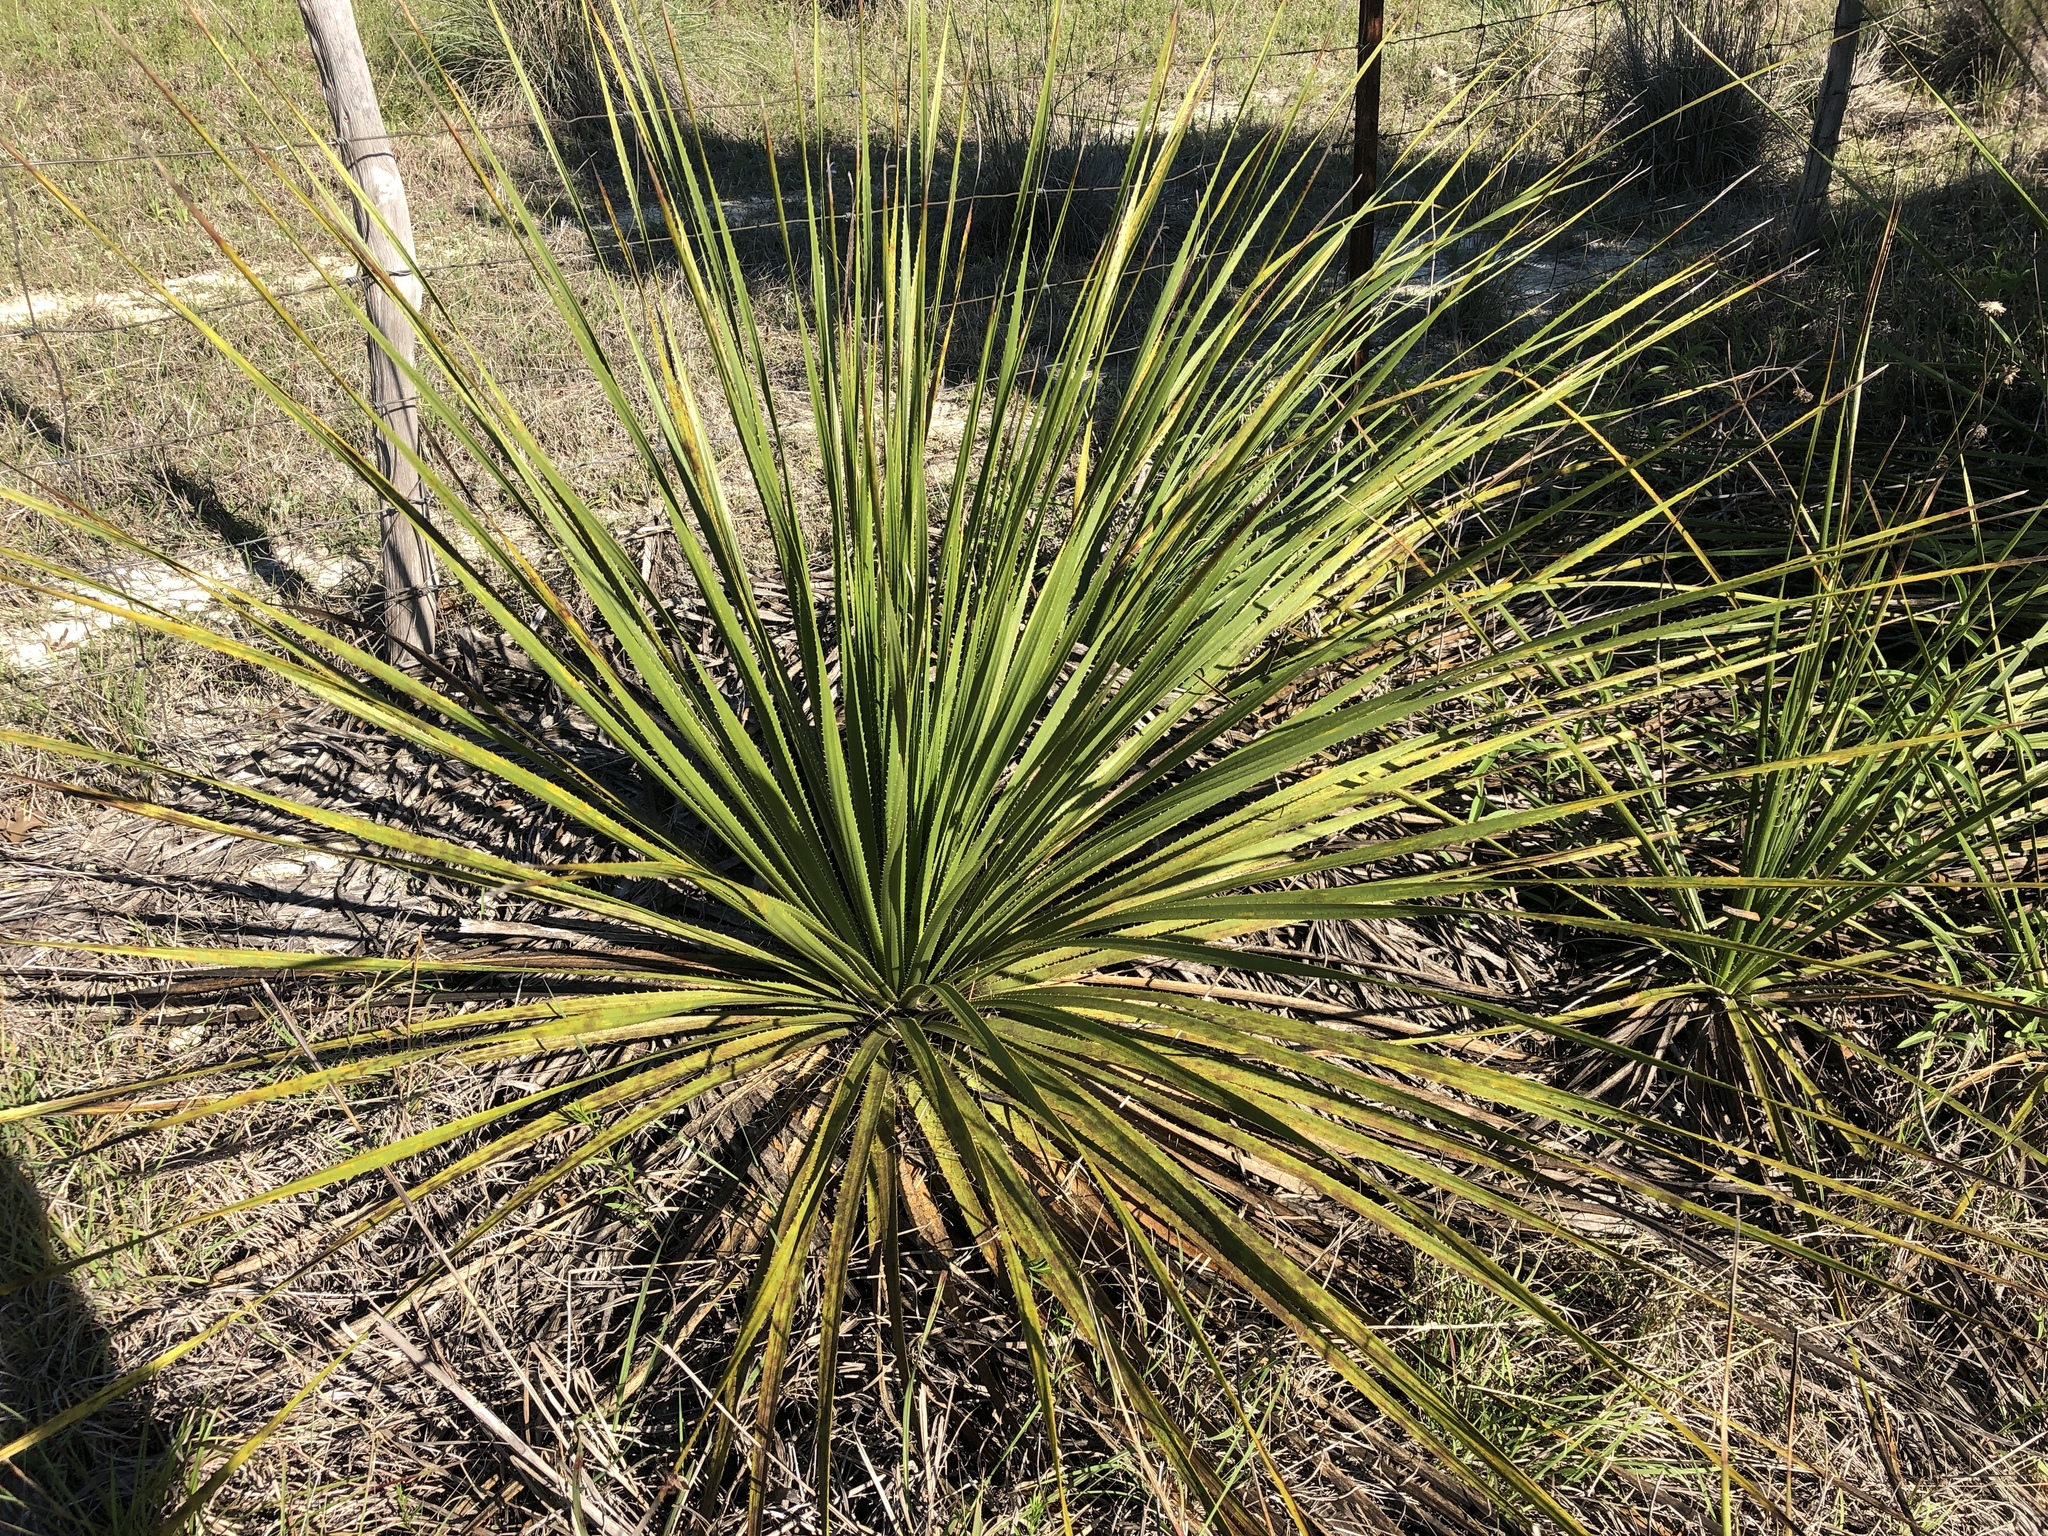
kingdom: Plantae
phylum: Tracheophyta
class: Liliopsida
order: Asparagales
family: Asparagaceae
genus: Dasylirion
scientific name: Dasylirion texanum
